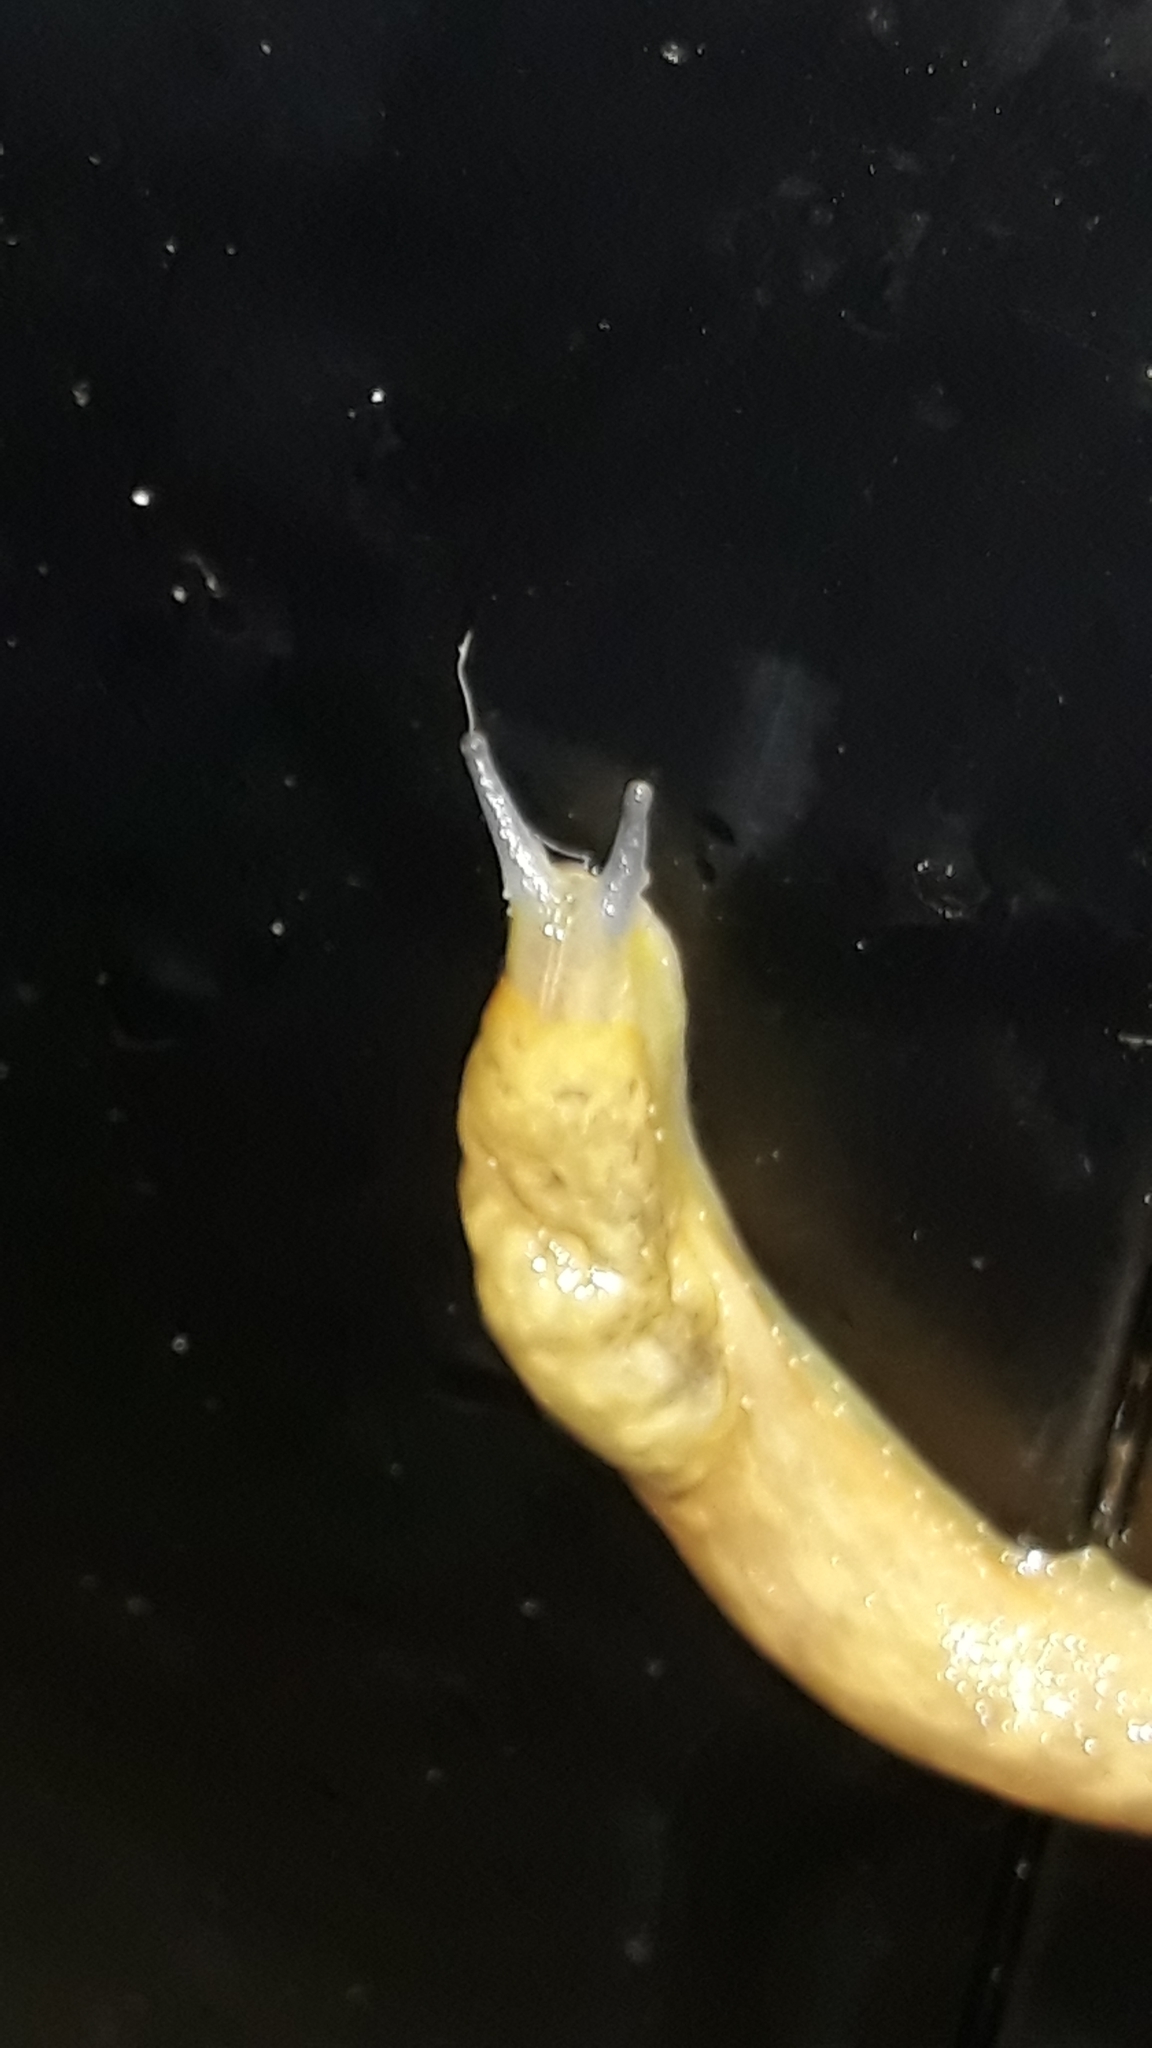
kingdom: Animalia
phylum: Mollusca
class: Gastropoda
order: Stylommatophora
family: Limacidae
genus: Limacus
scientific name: Limacus flavus
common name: Yellow gardenslug
